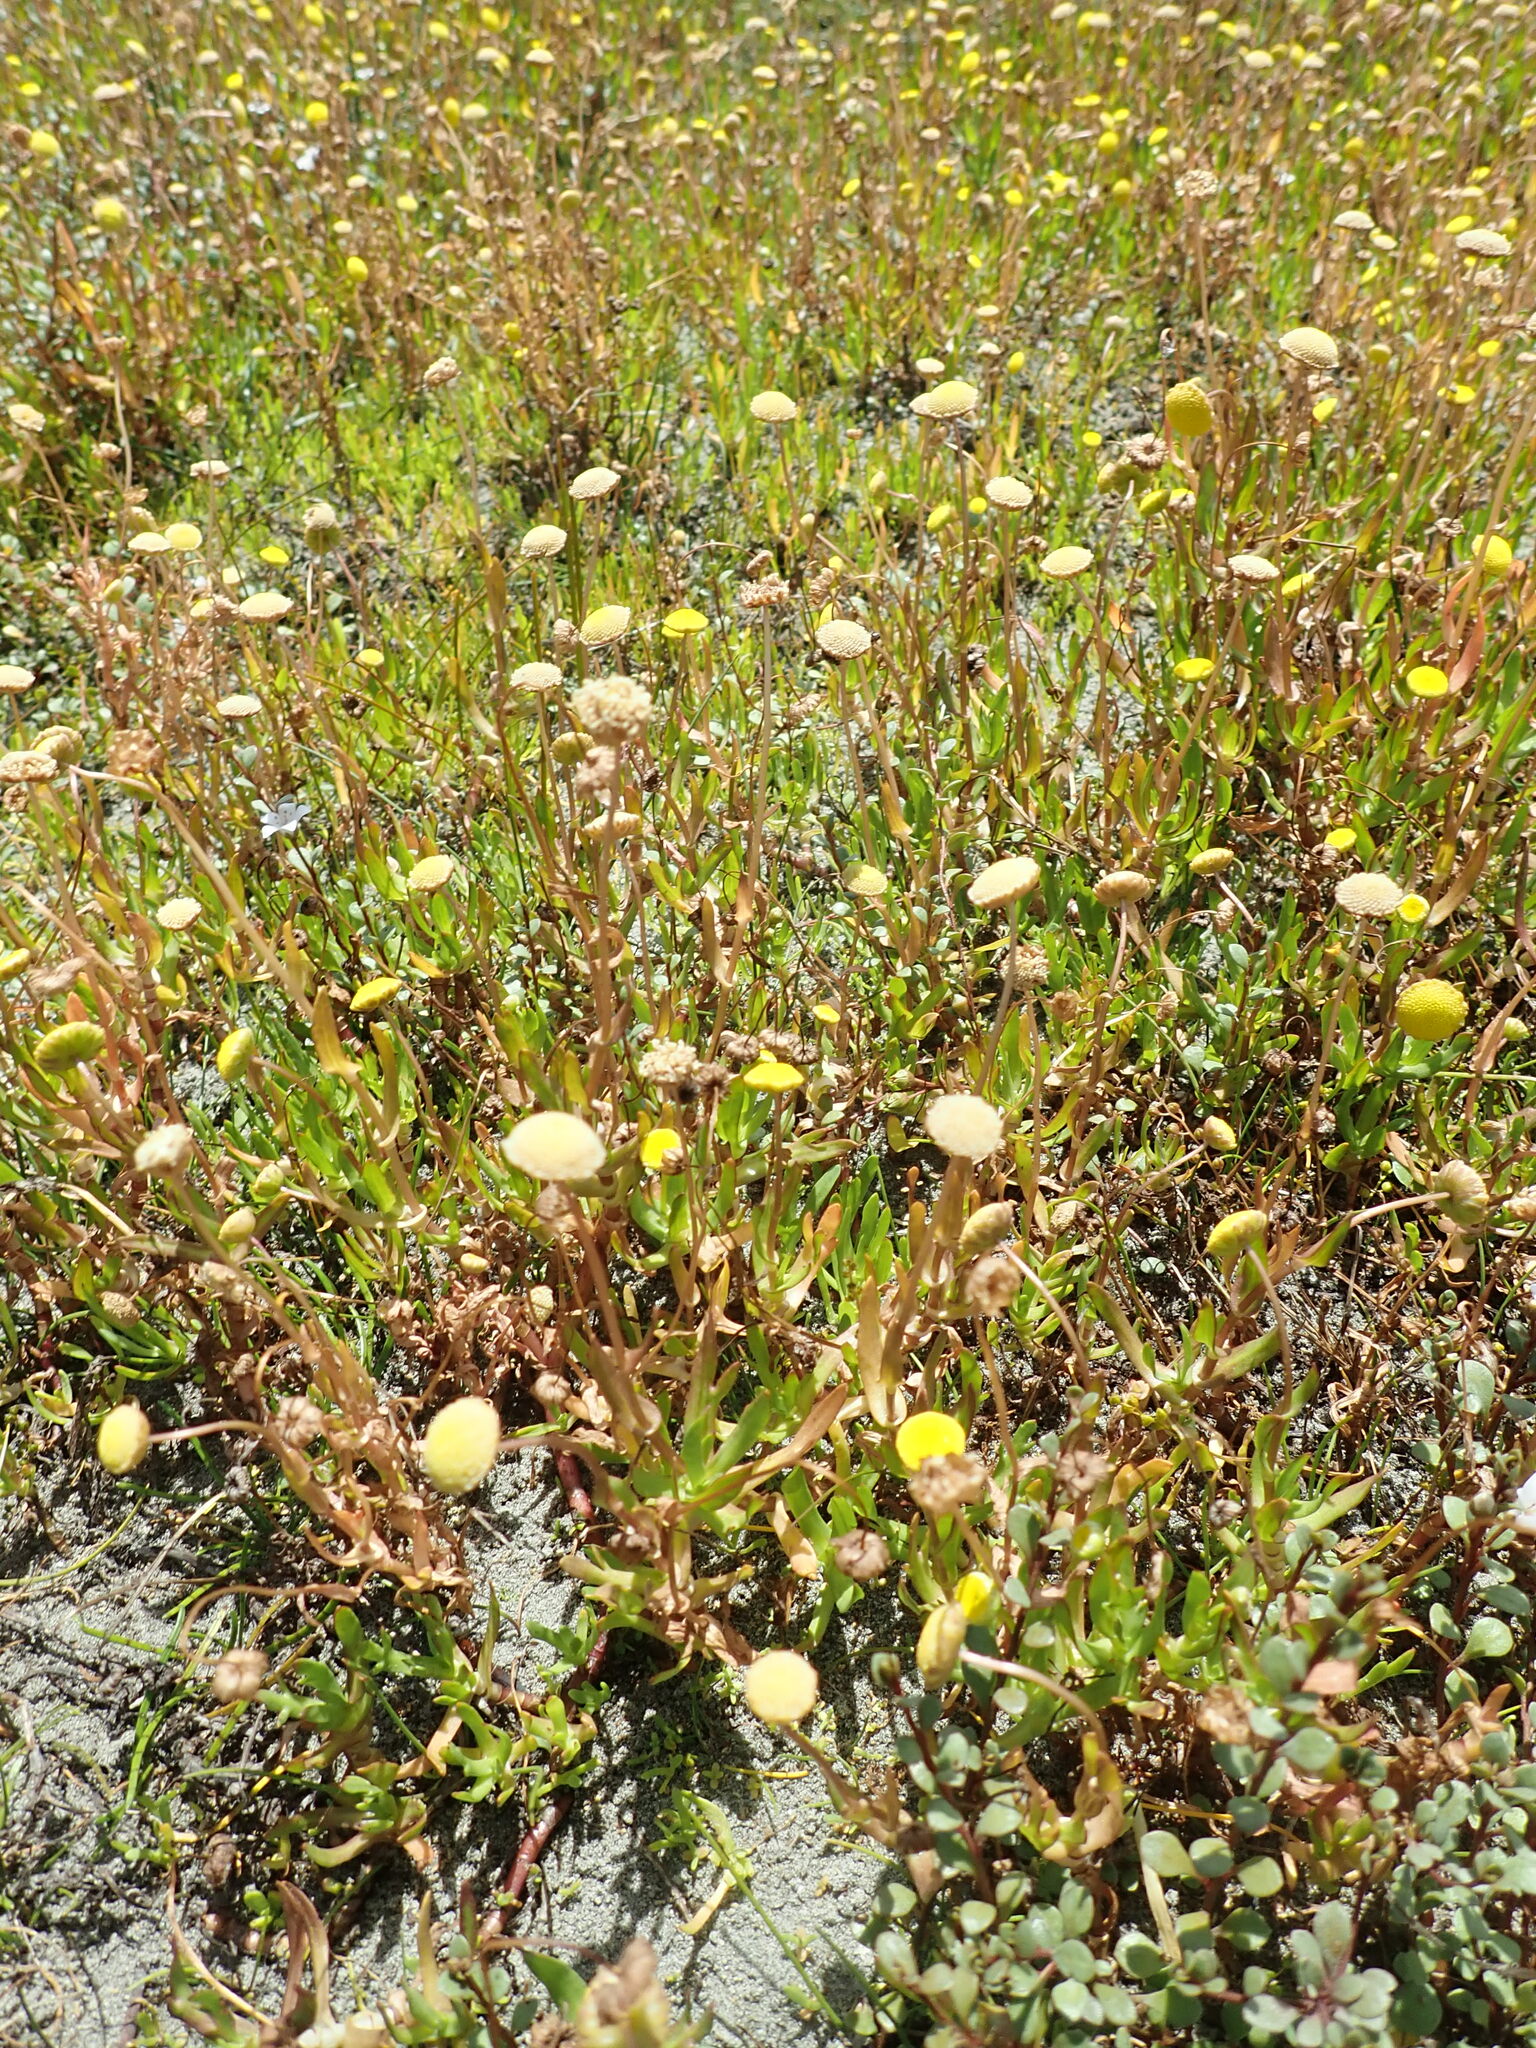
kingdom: Plantae
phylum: Tracheophyta
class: Magnoliopsida
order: Asterales
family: Asteraceae
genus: Cotula
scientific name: Cotula coronopifolia
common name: Buttonweed
